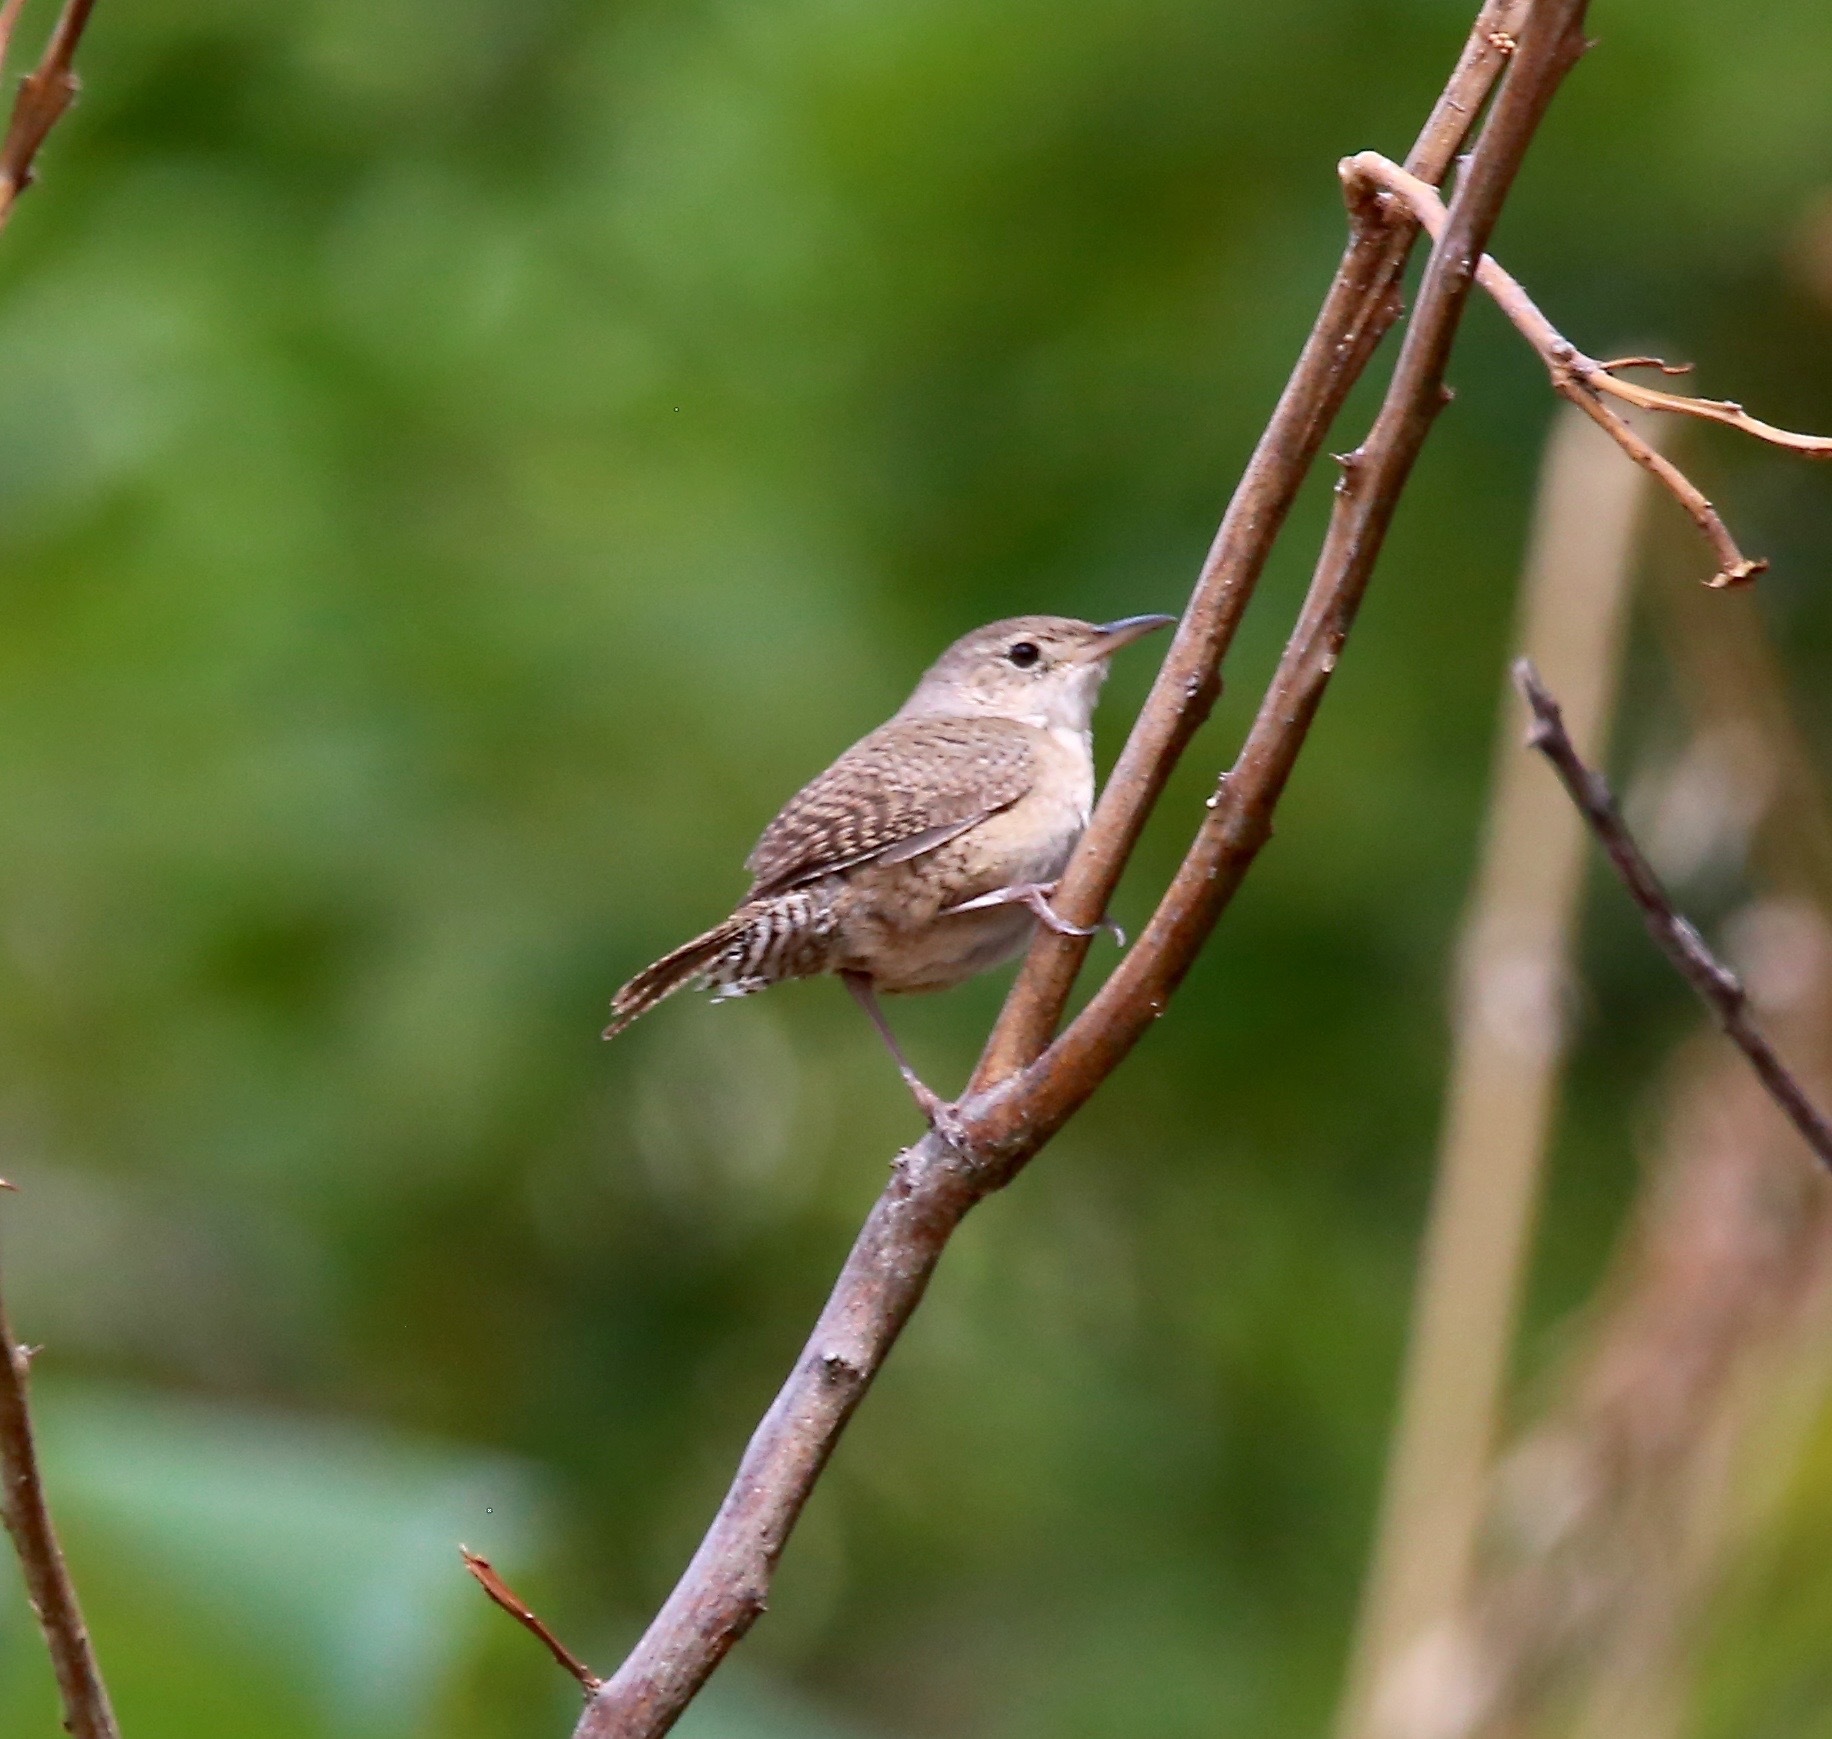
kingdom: Animalia
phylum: Chordata
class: Aves
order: Passeriformes
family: Troglodytidae
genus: Troglodytes
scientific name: Troglodytes aedon
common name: House wren
